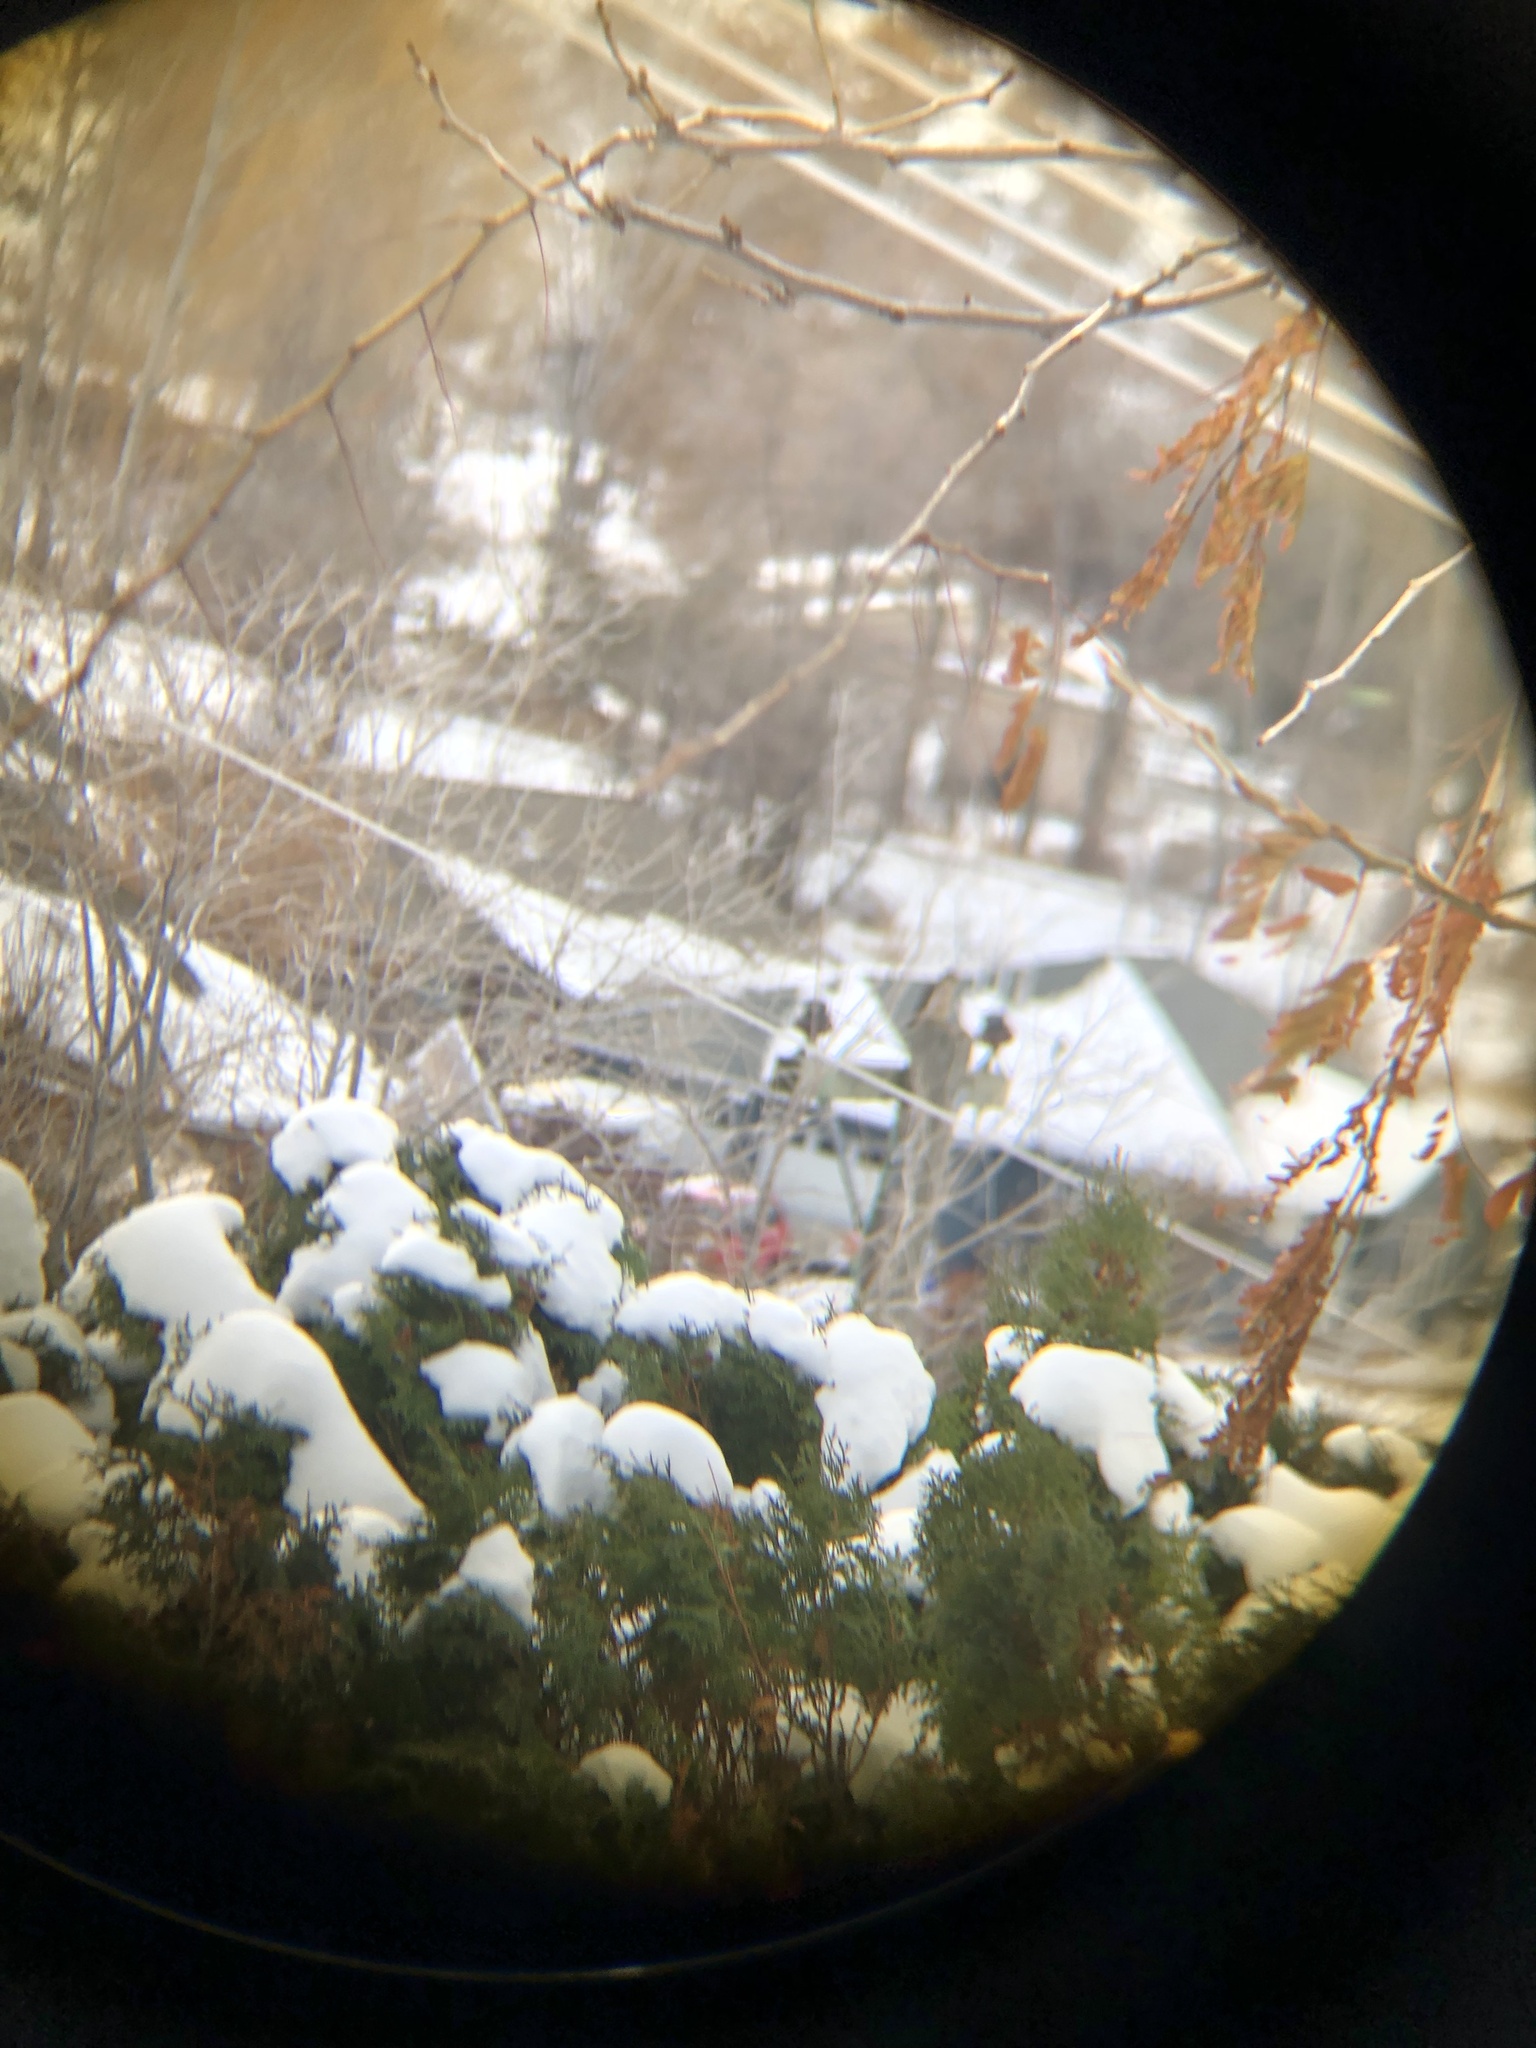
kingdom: Animalia
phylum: Chordata
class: Aves
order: Falconiformes
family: Falconidae
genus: Falco
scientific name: Falco columbarius
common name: Merlin
